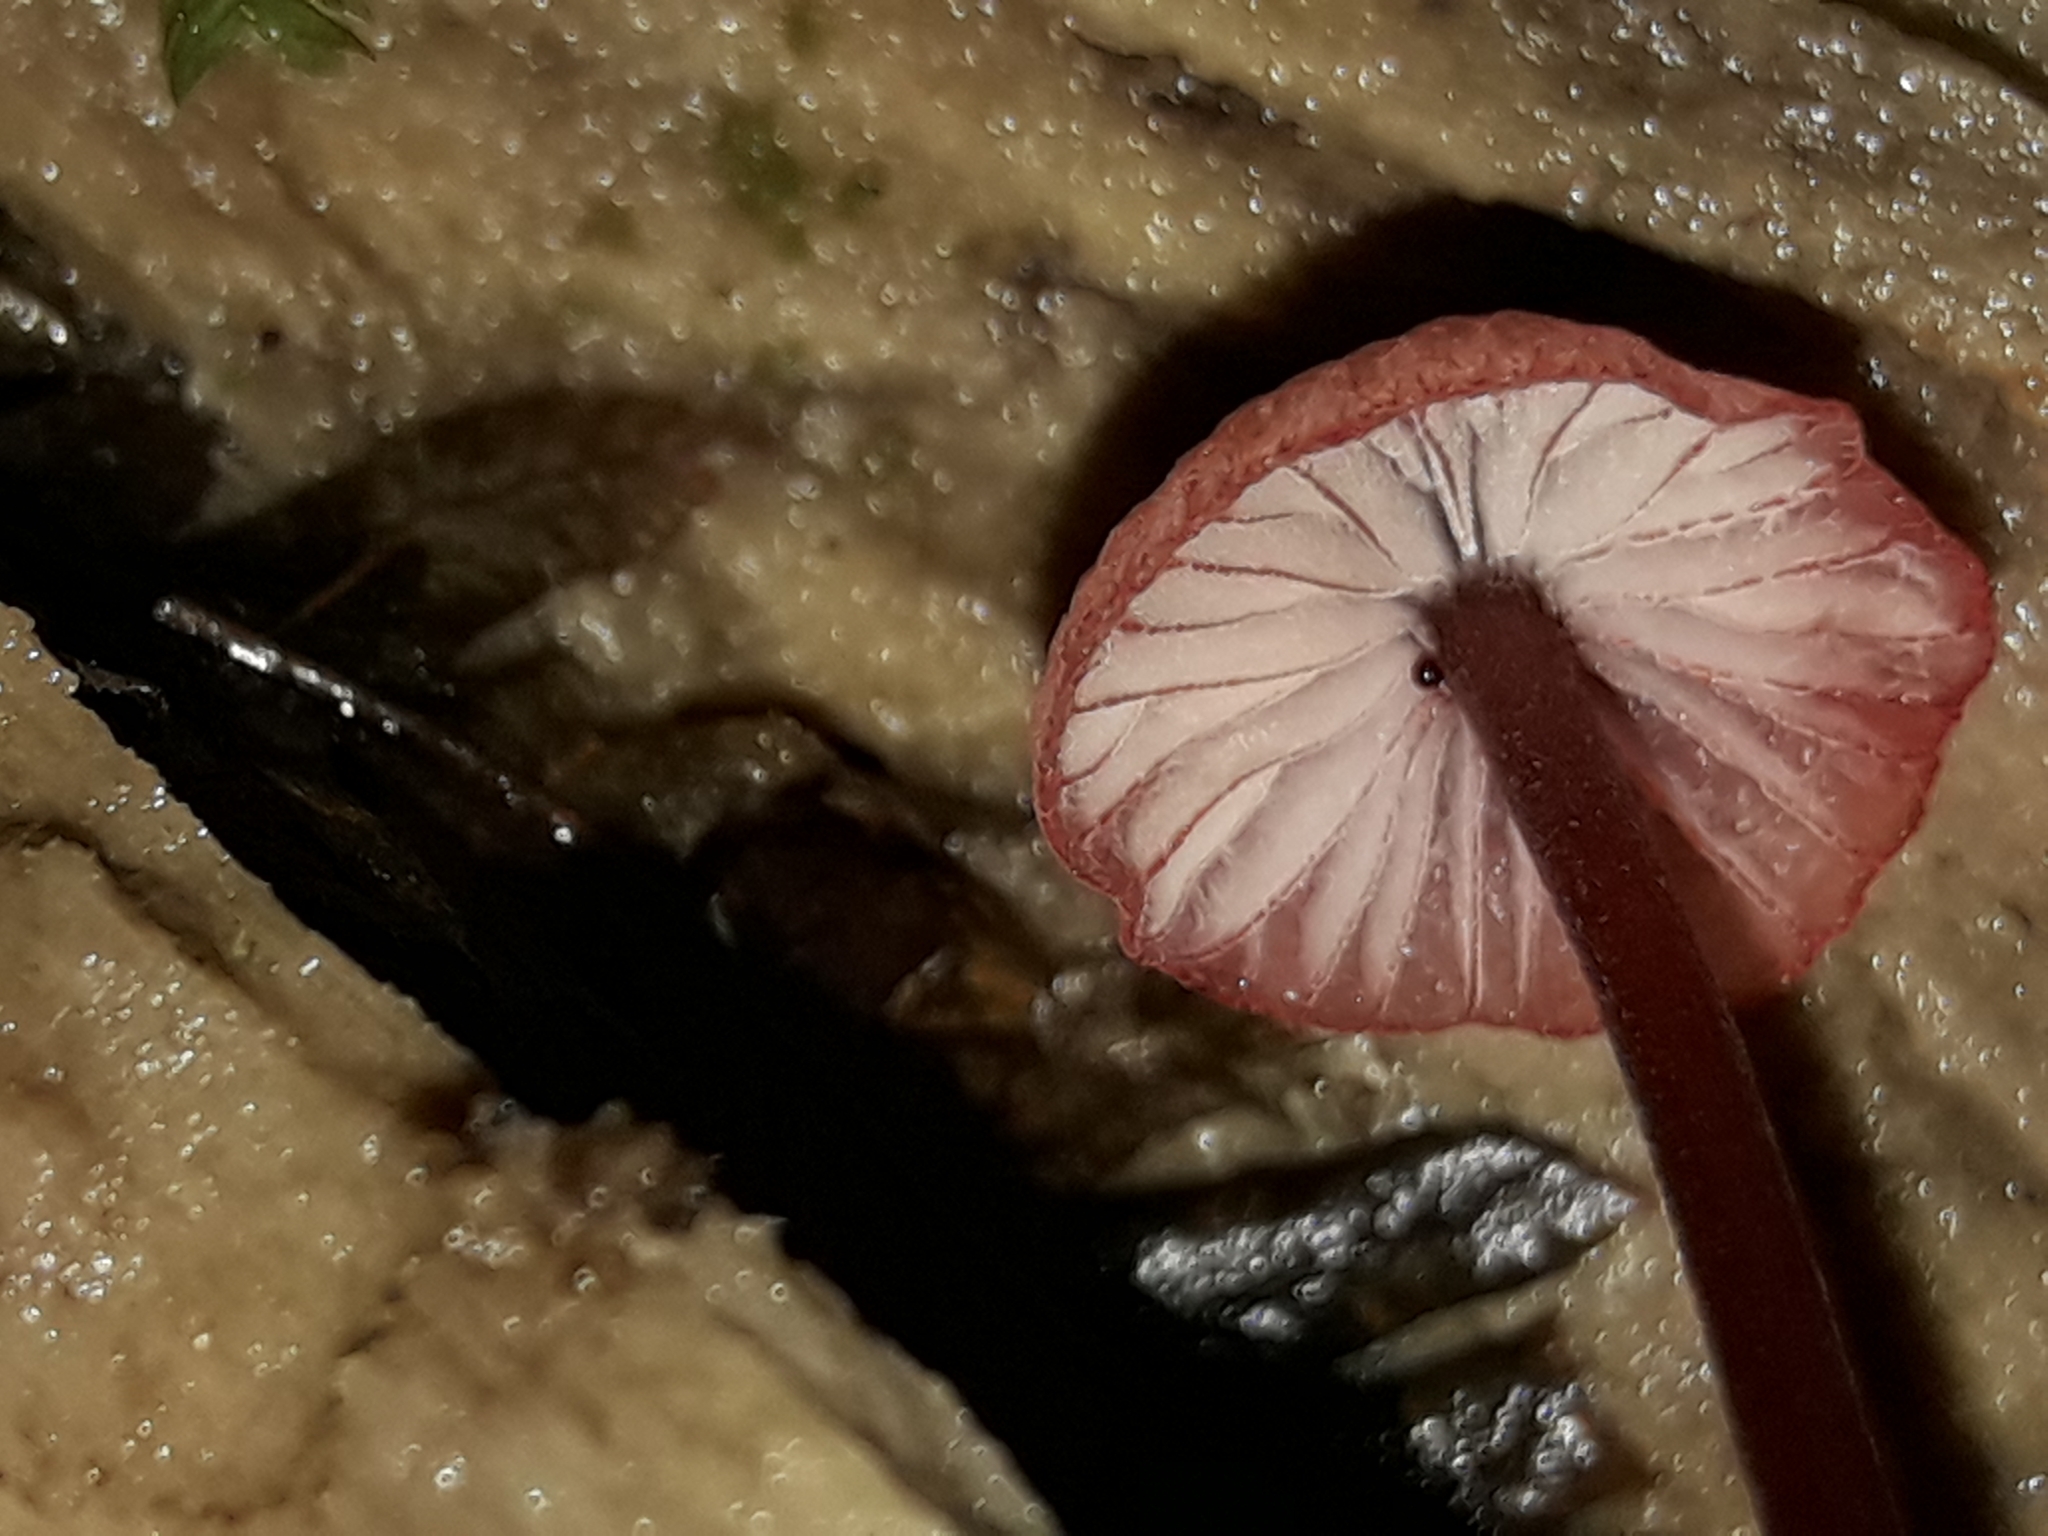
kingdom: Fungi
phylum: Basidiomycota
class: Agaricomycetes
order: Agaricales
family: Mycenaceae
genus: Mycena
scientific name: Mycena mariae
